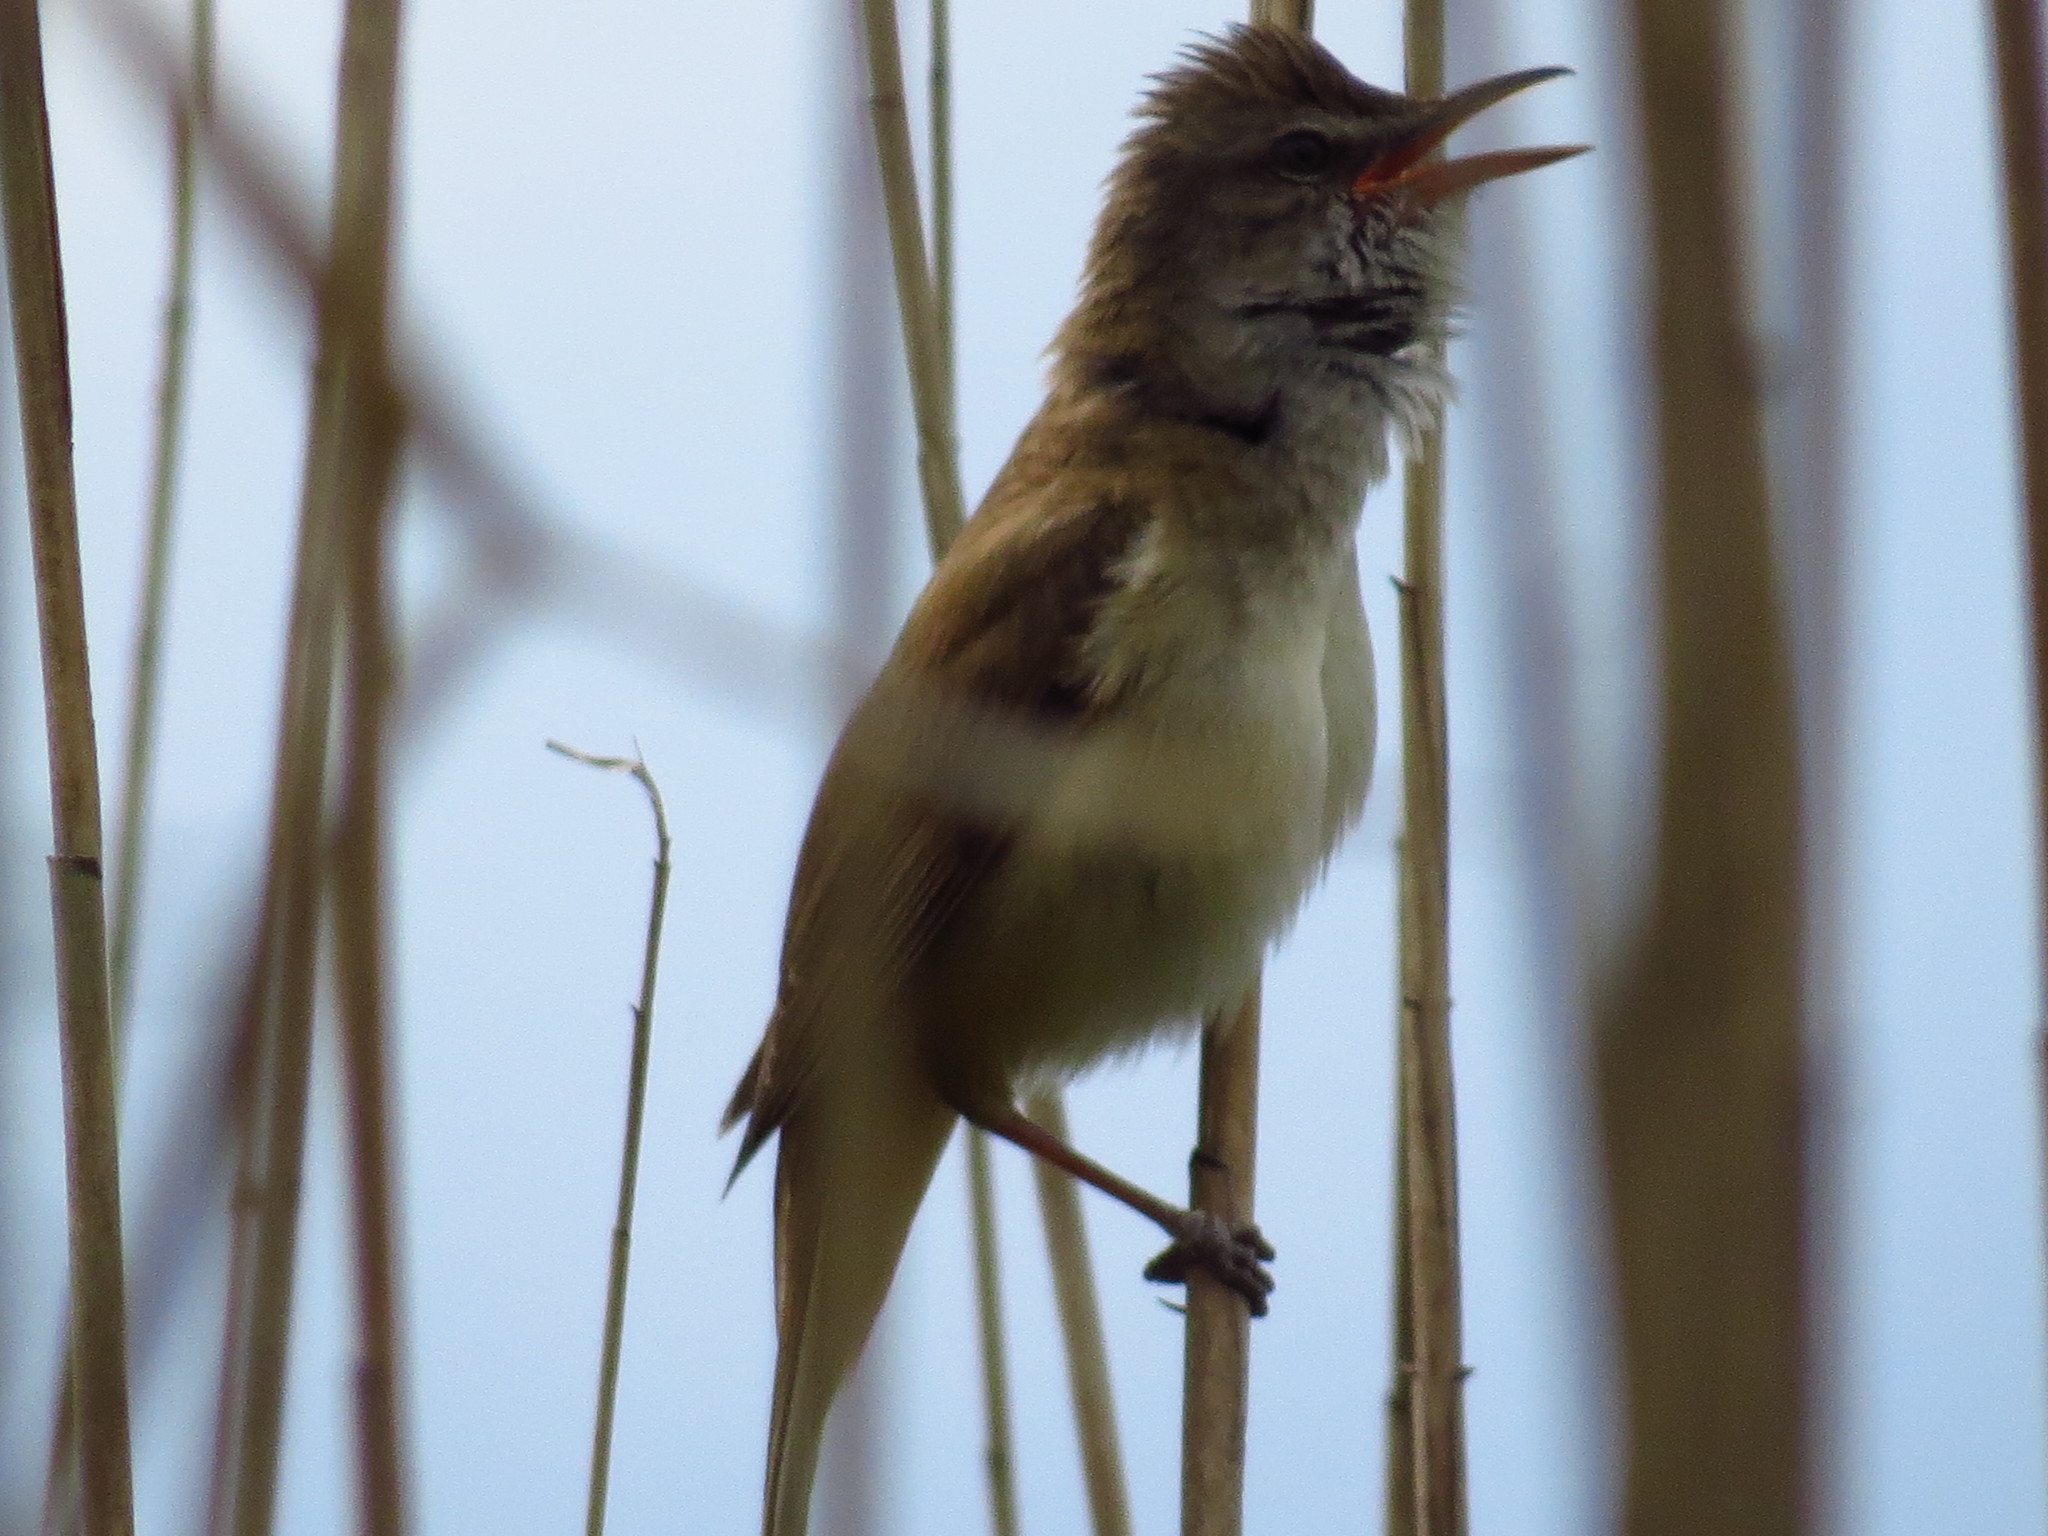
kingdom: Animalia
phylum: Chordata
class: Aves
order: Passeriformes
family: Acrocephalidae
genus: Acrocephalus
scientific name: Acrocephalus arundinaceus
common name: Great reed warbler
